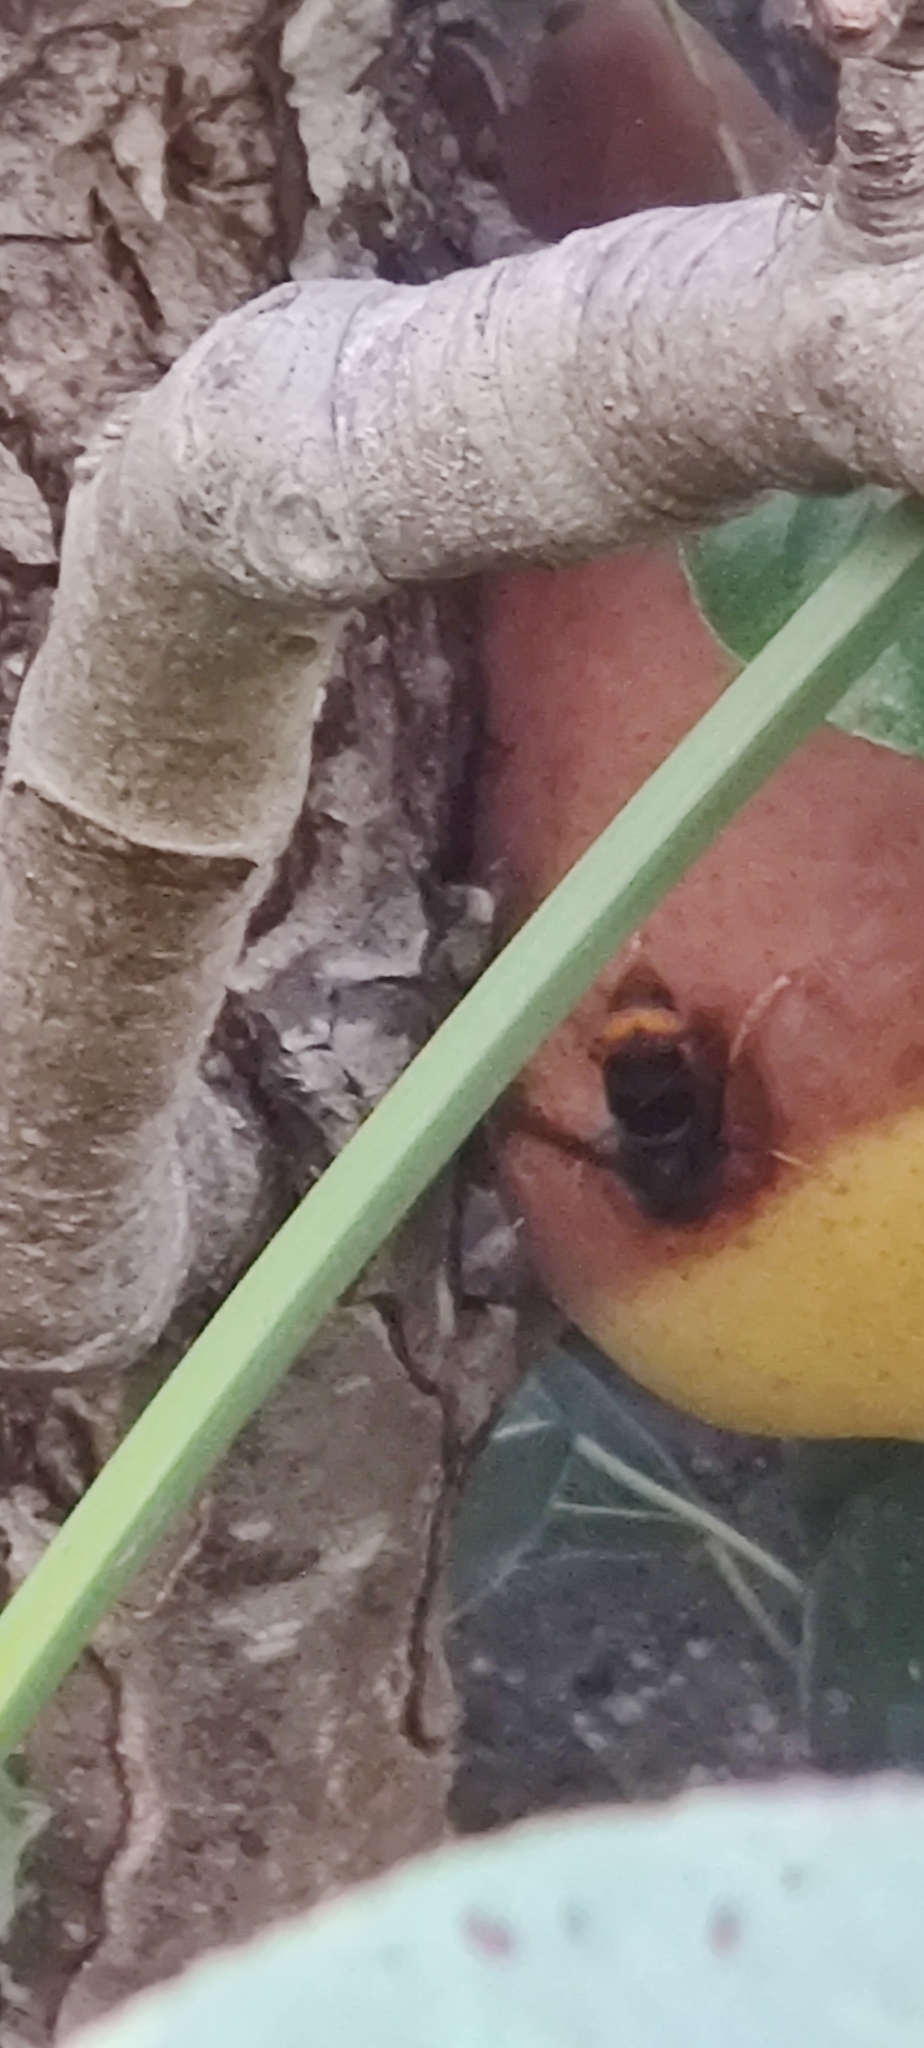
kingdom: Animalia
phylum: Arthropoda
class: Insecta
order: Hymenoptera
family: Vespidae
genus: Vespa
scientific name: Vespa velutina
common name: Asian hornet
